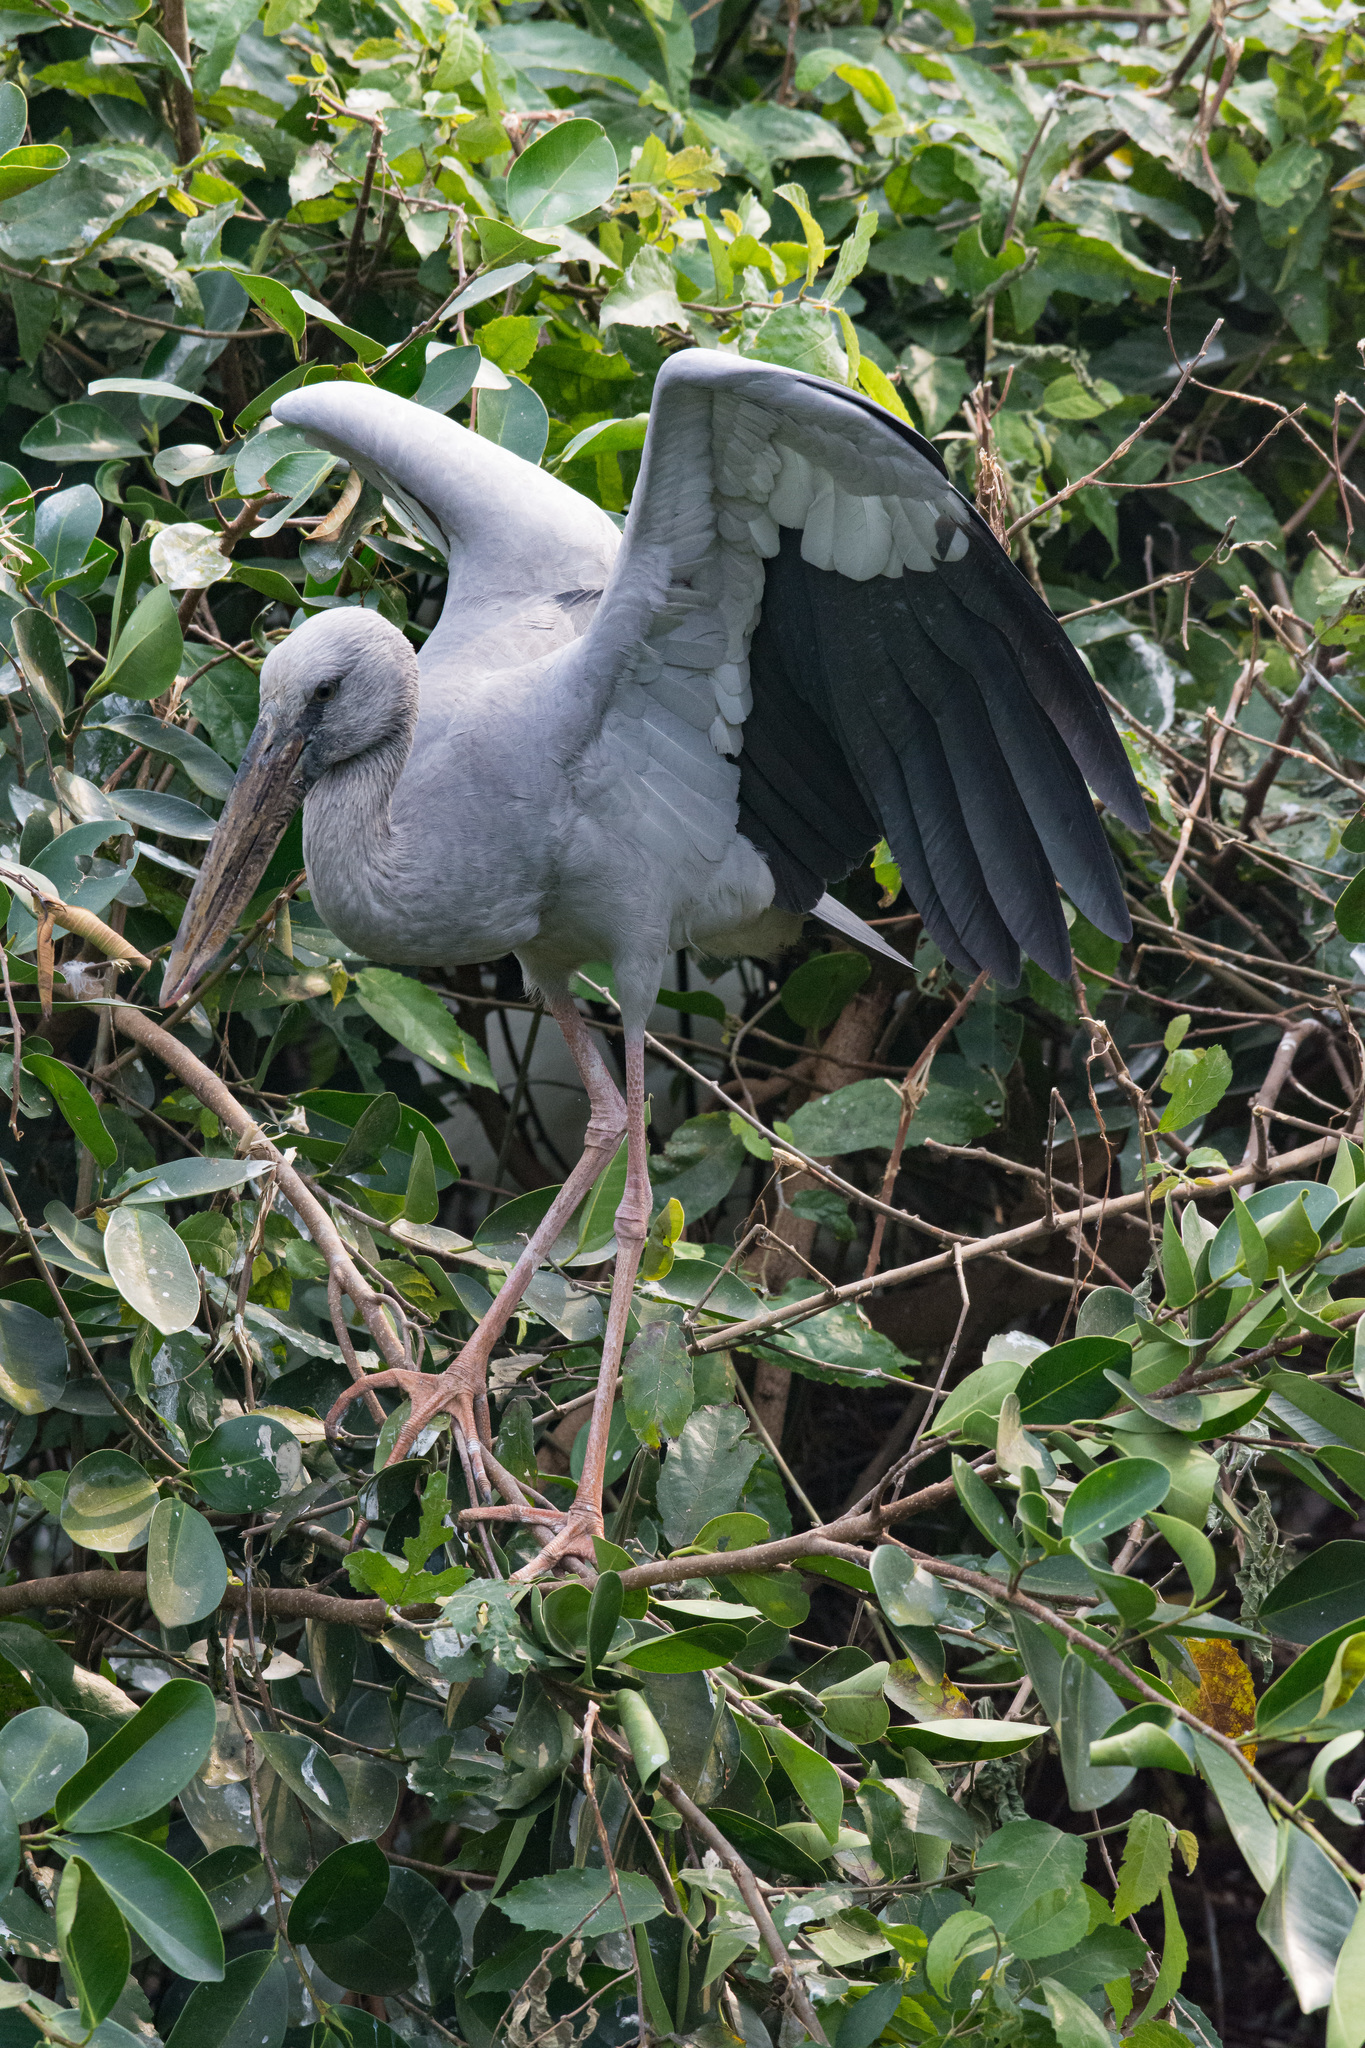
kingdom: Animalia
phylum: Chordata
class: Aves
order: Ciconiiformes
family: Ciconiidae
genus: Anastomus
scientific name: Anastomus oscitans
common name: Asian openbill
